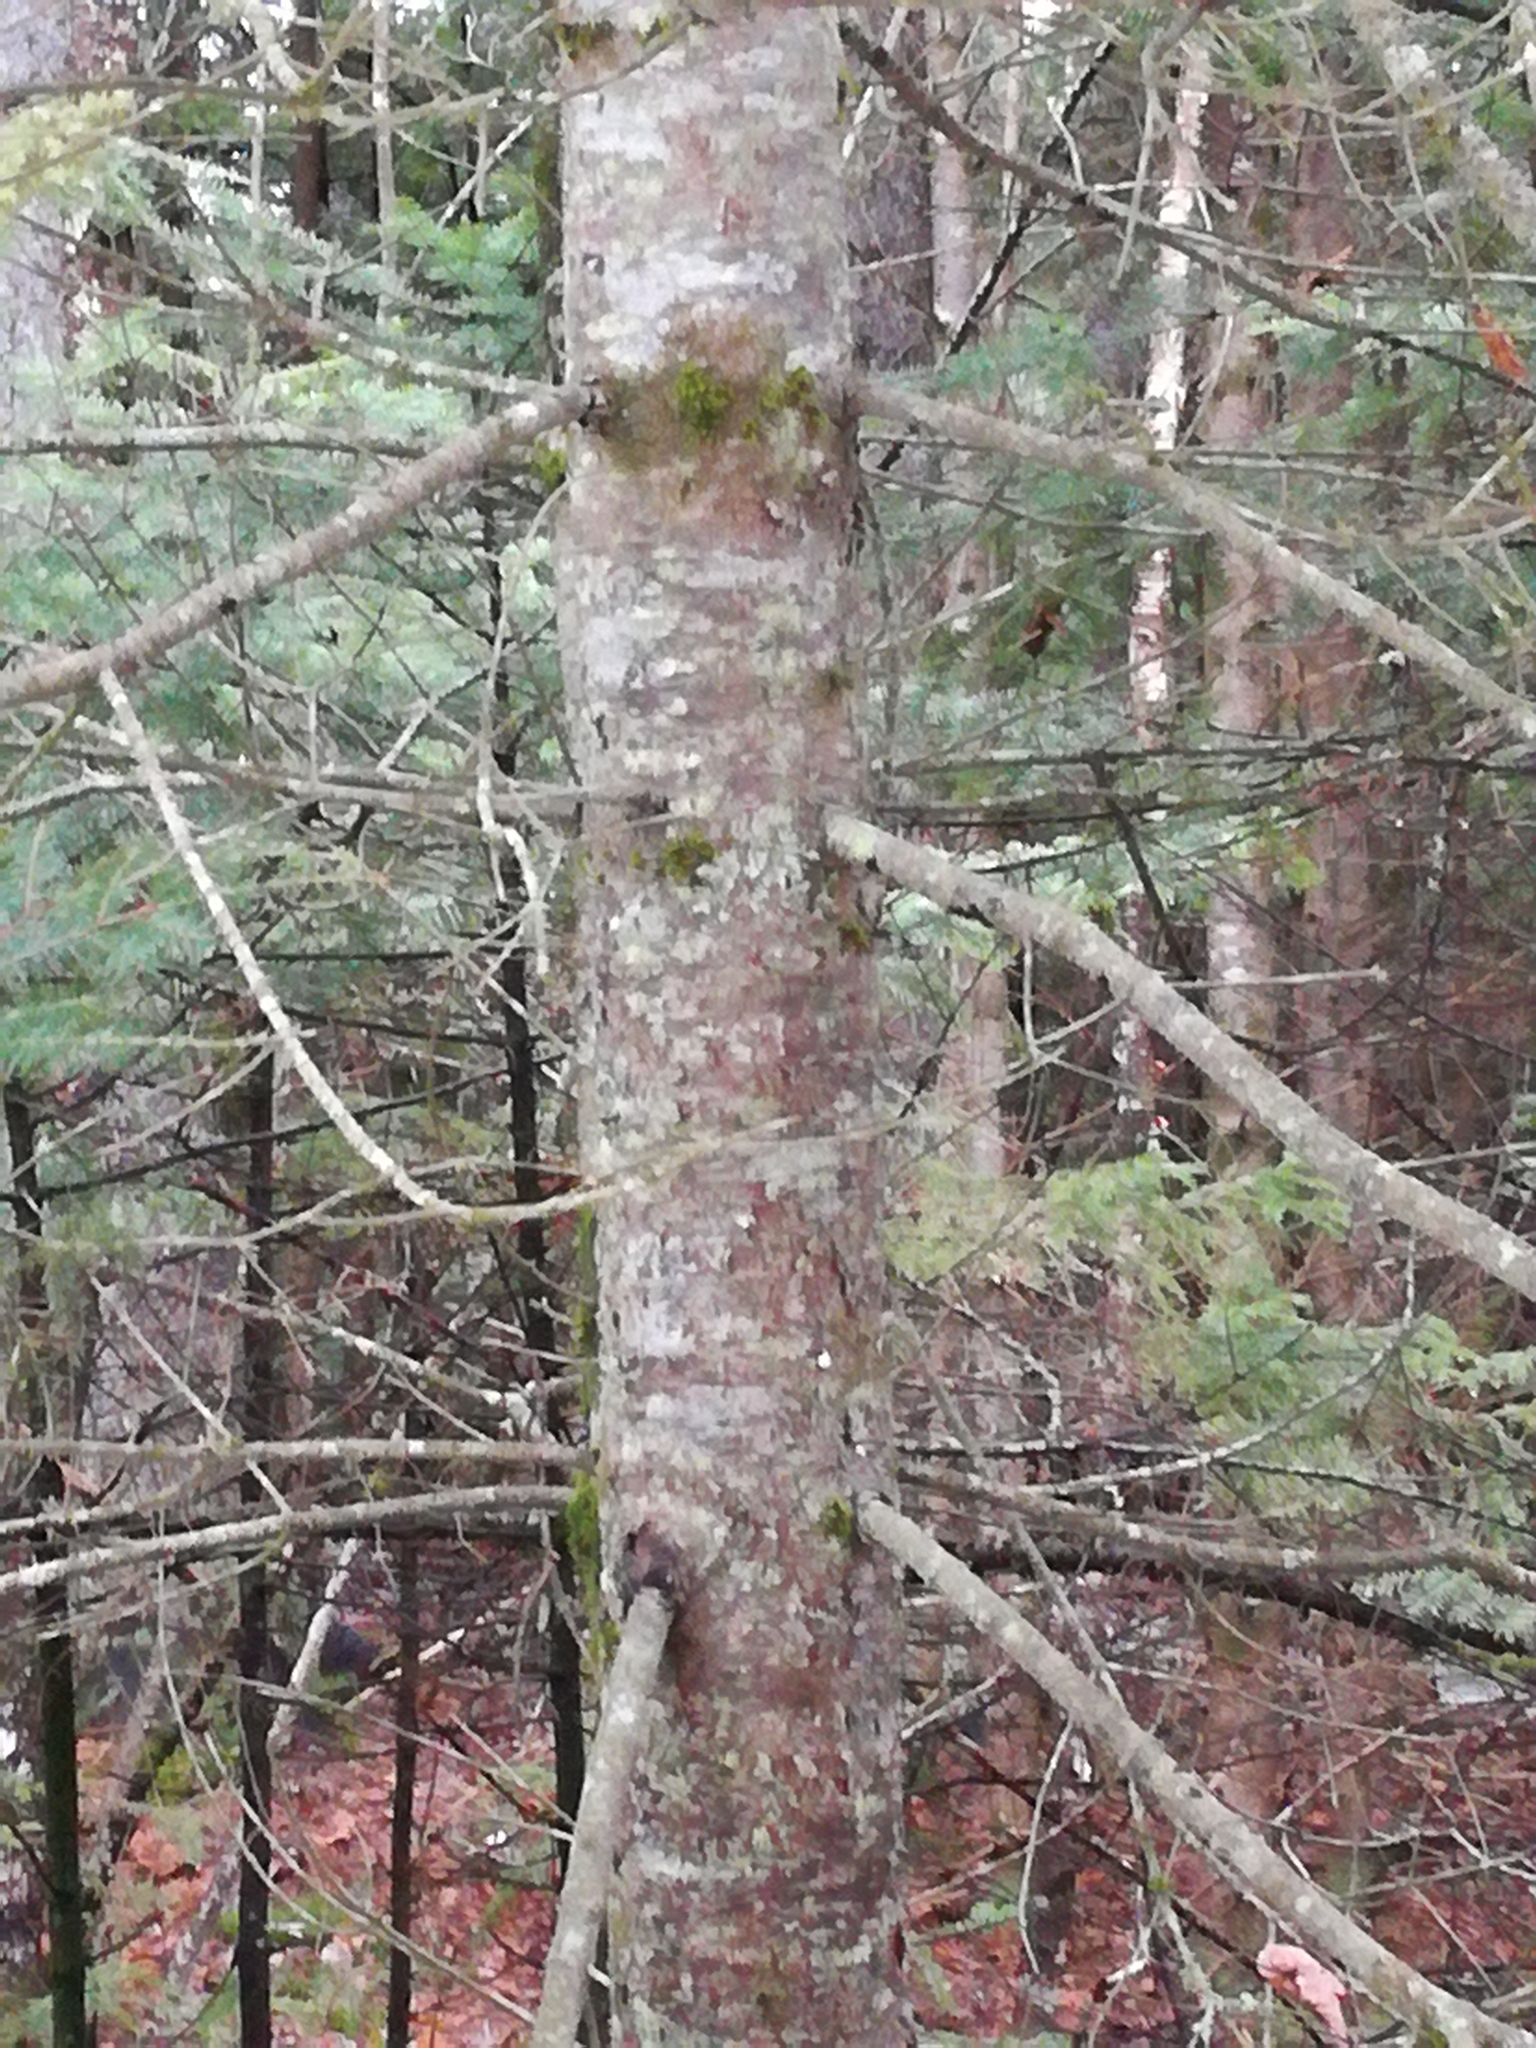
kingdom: Plantae
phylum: Tracheophyta
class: Pinopsida
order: Pinales
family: Pinaceae
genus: Abies
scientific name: Abies balsamea
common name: Balsam fir
